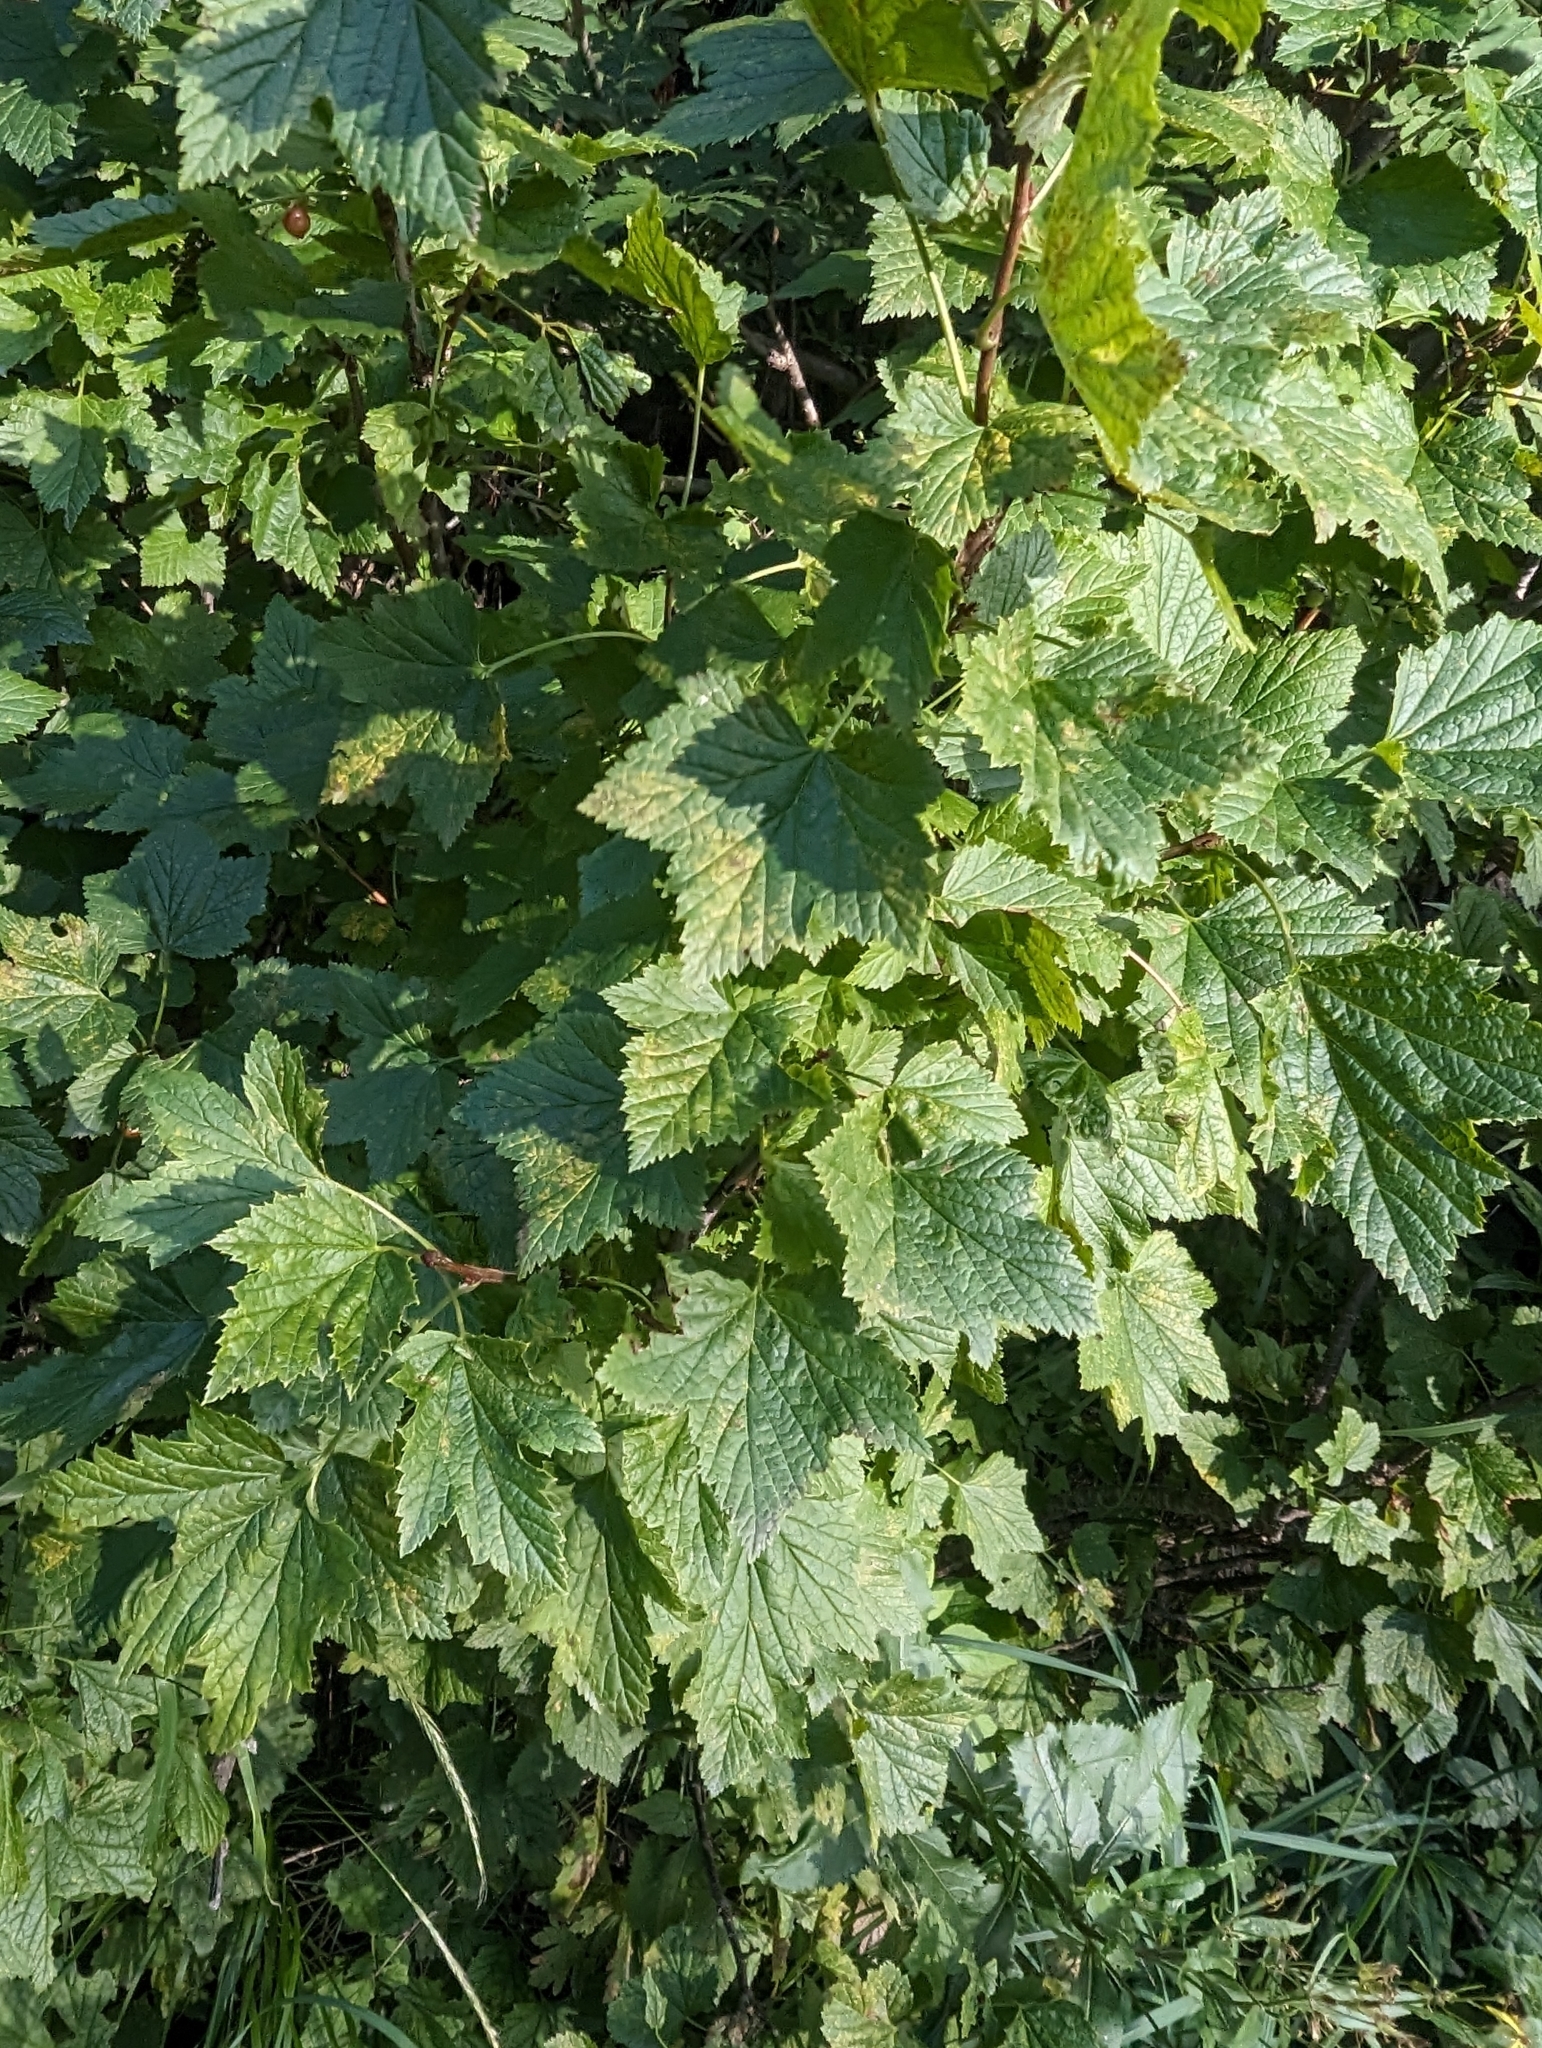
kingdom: Plantae
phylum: Tracheophyta
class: Magnoliopsida
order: Saxifragales
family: Grossulariaceae
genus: Ribes
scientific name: Ribes rubrum
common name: Red currant
